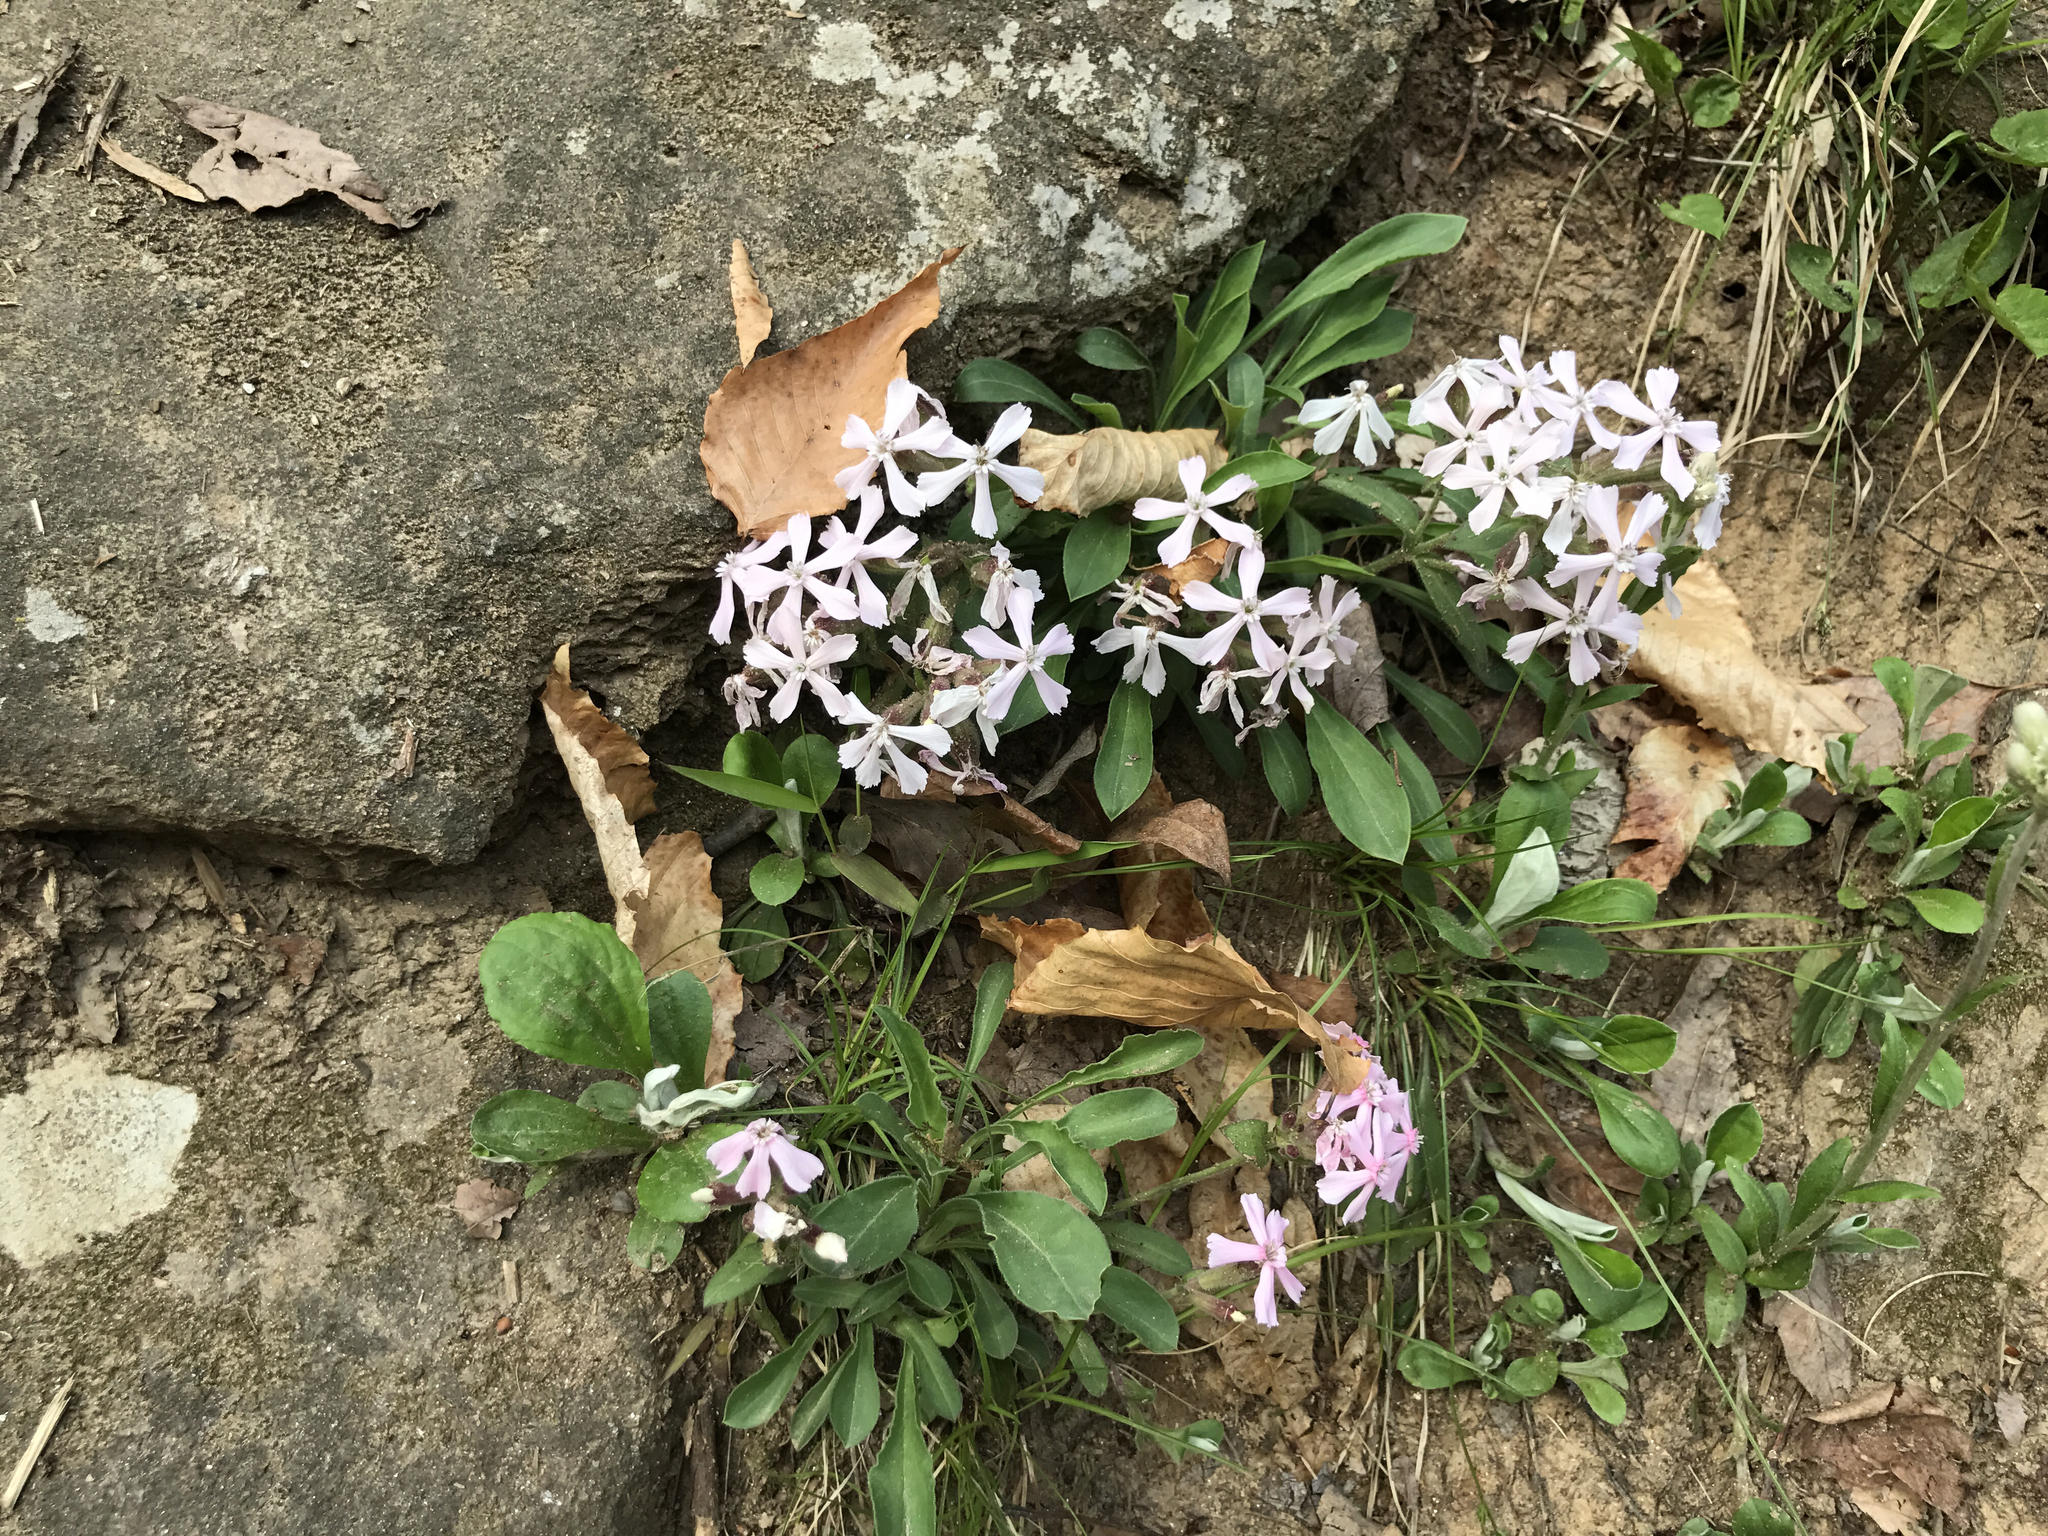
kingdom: Plantae
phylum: Tracheophyta
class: Magnoliopsida
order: Caryophyllales
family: Caryophyllaceae
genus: Silene
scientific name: Silene caroliniana
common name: Sticky catchfly
